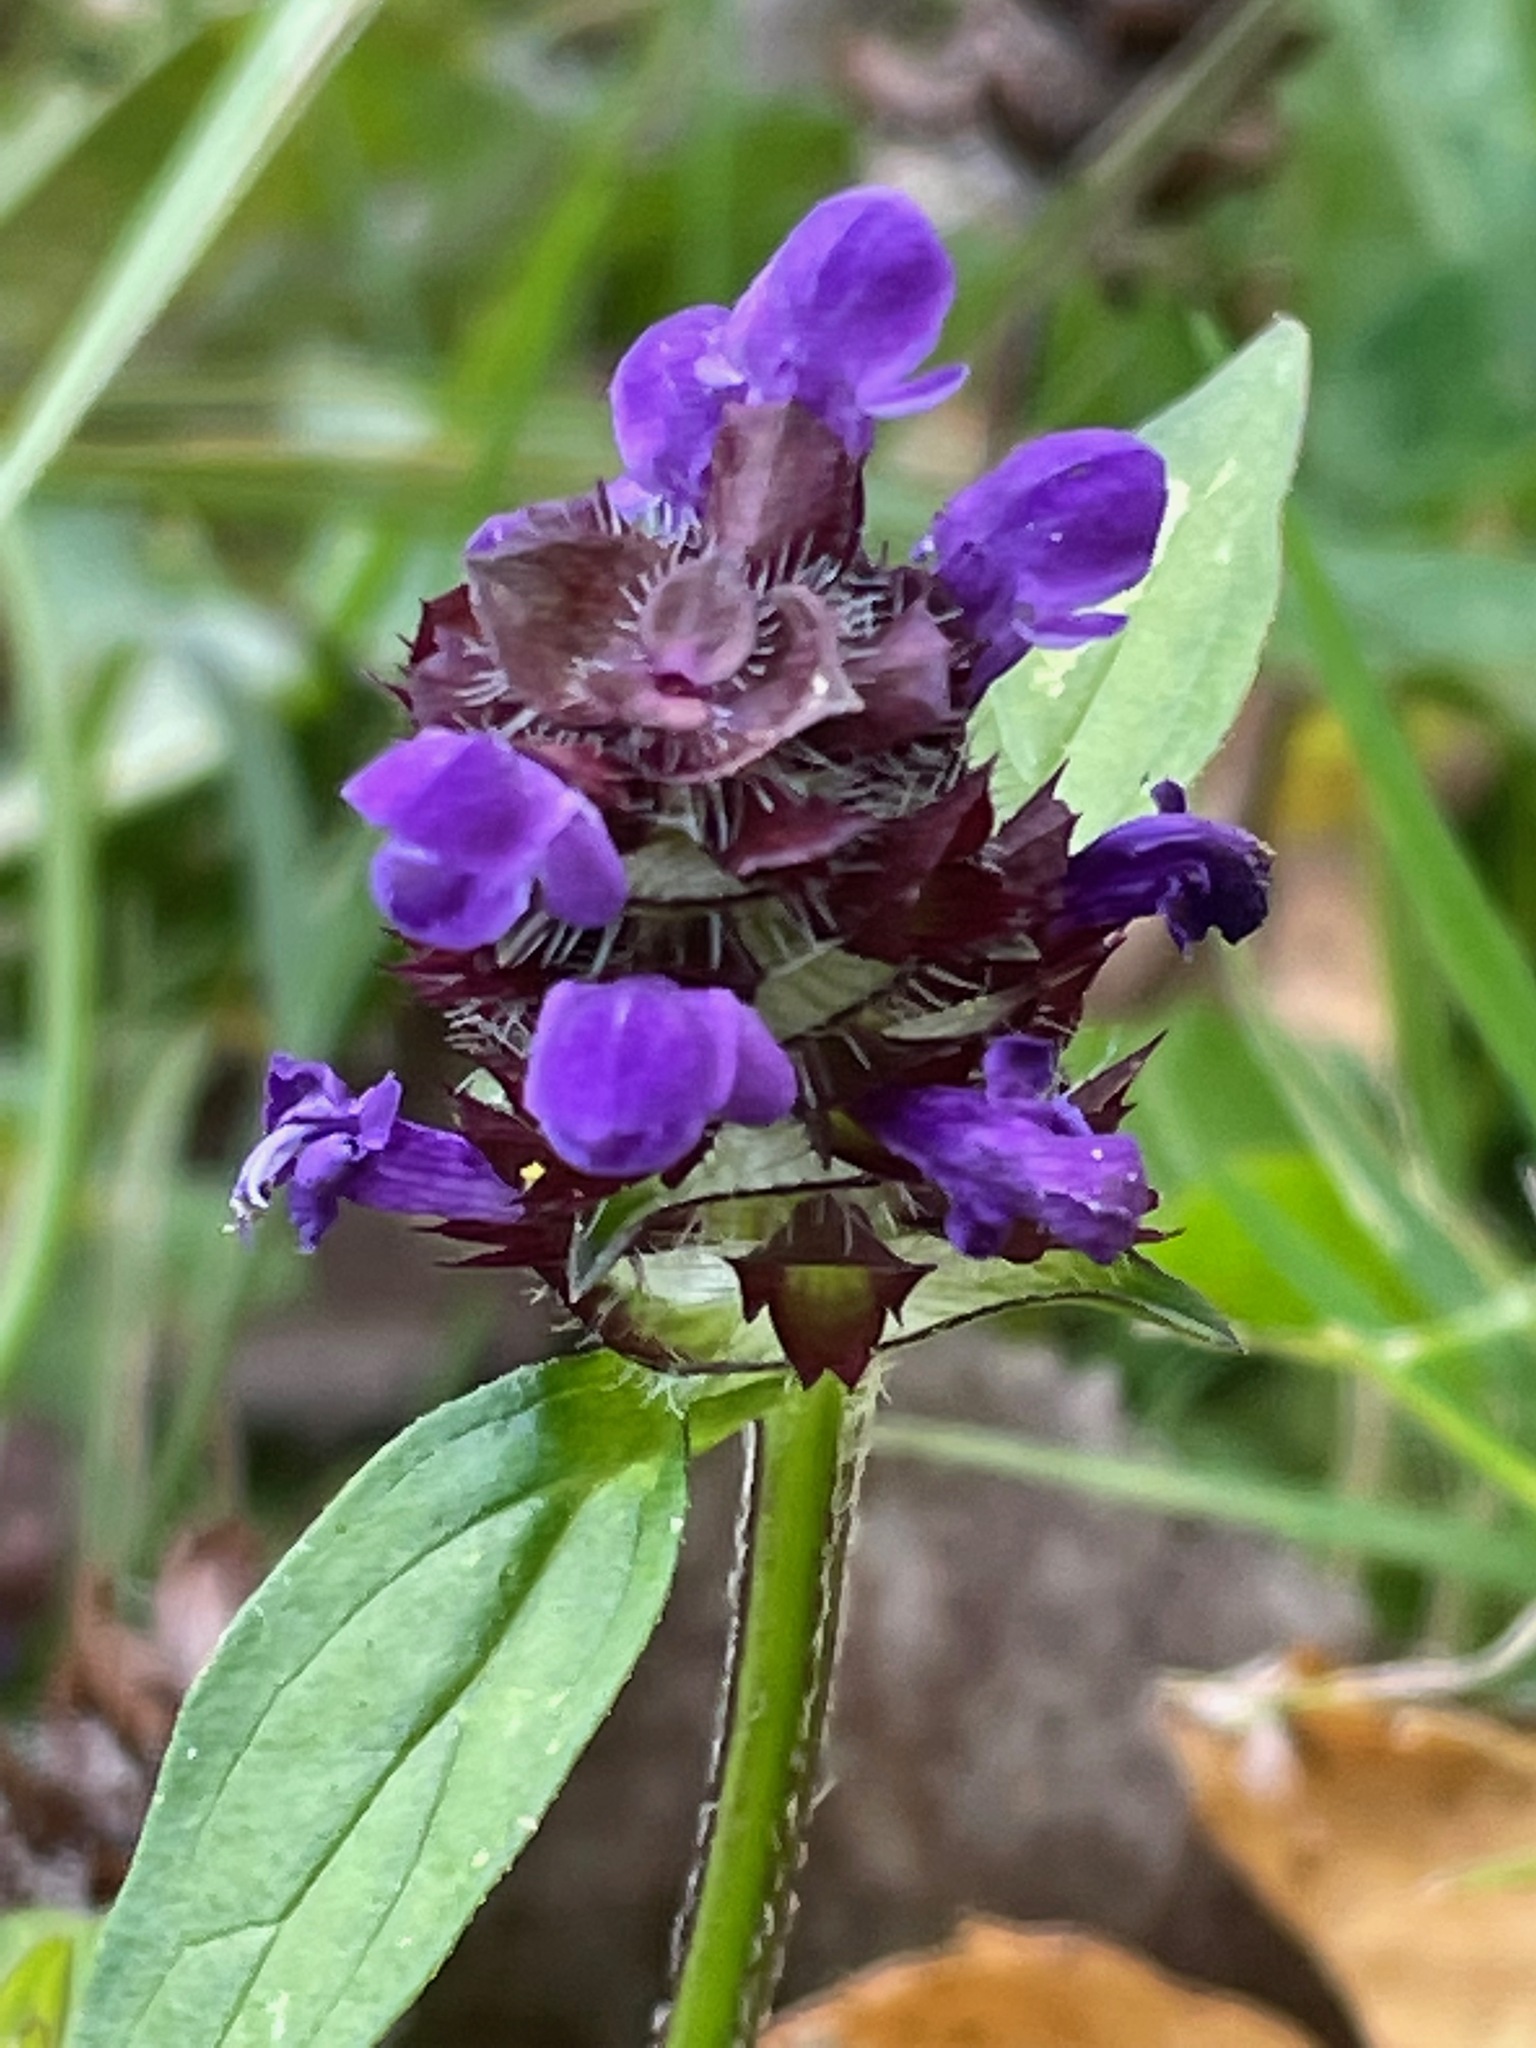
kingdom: Plantae
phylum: Tracheophyta
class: Magnoliopsida
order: Lamiales
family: Lamiaceae
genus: Prunella
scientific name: Prunella vulgaris
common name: Heal-all
